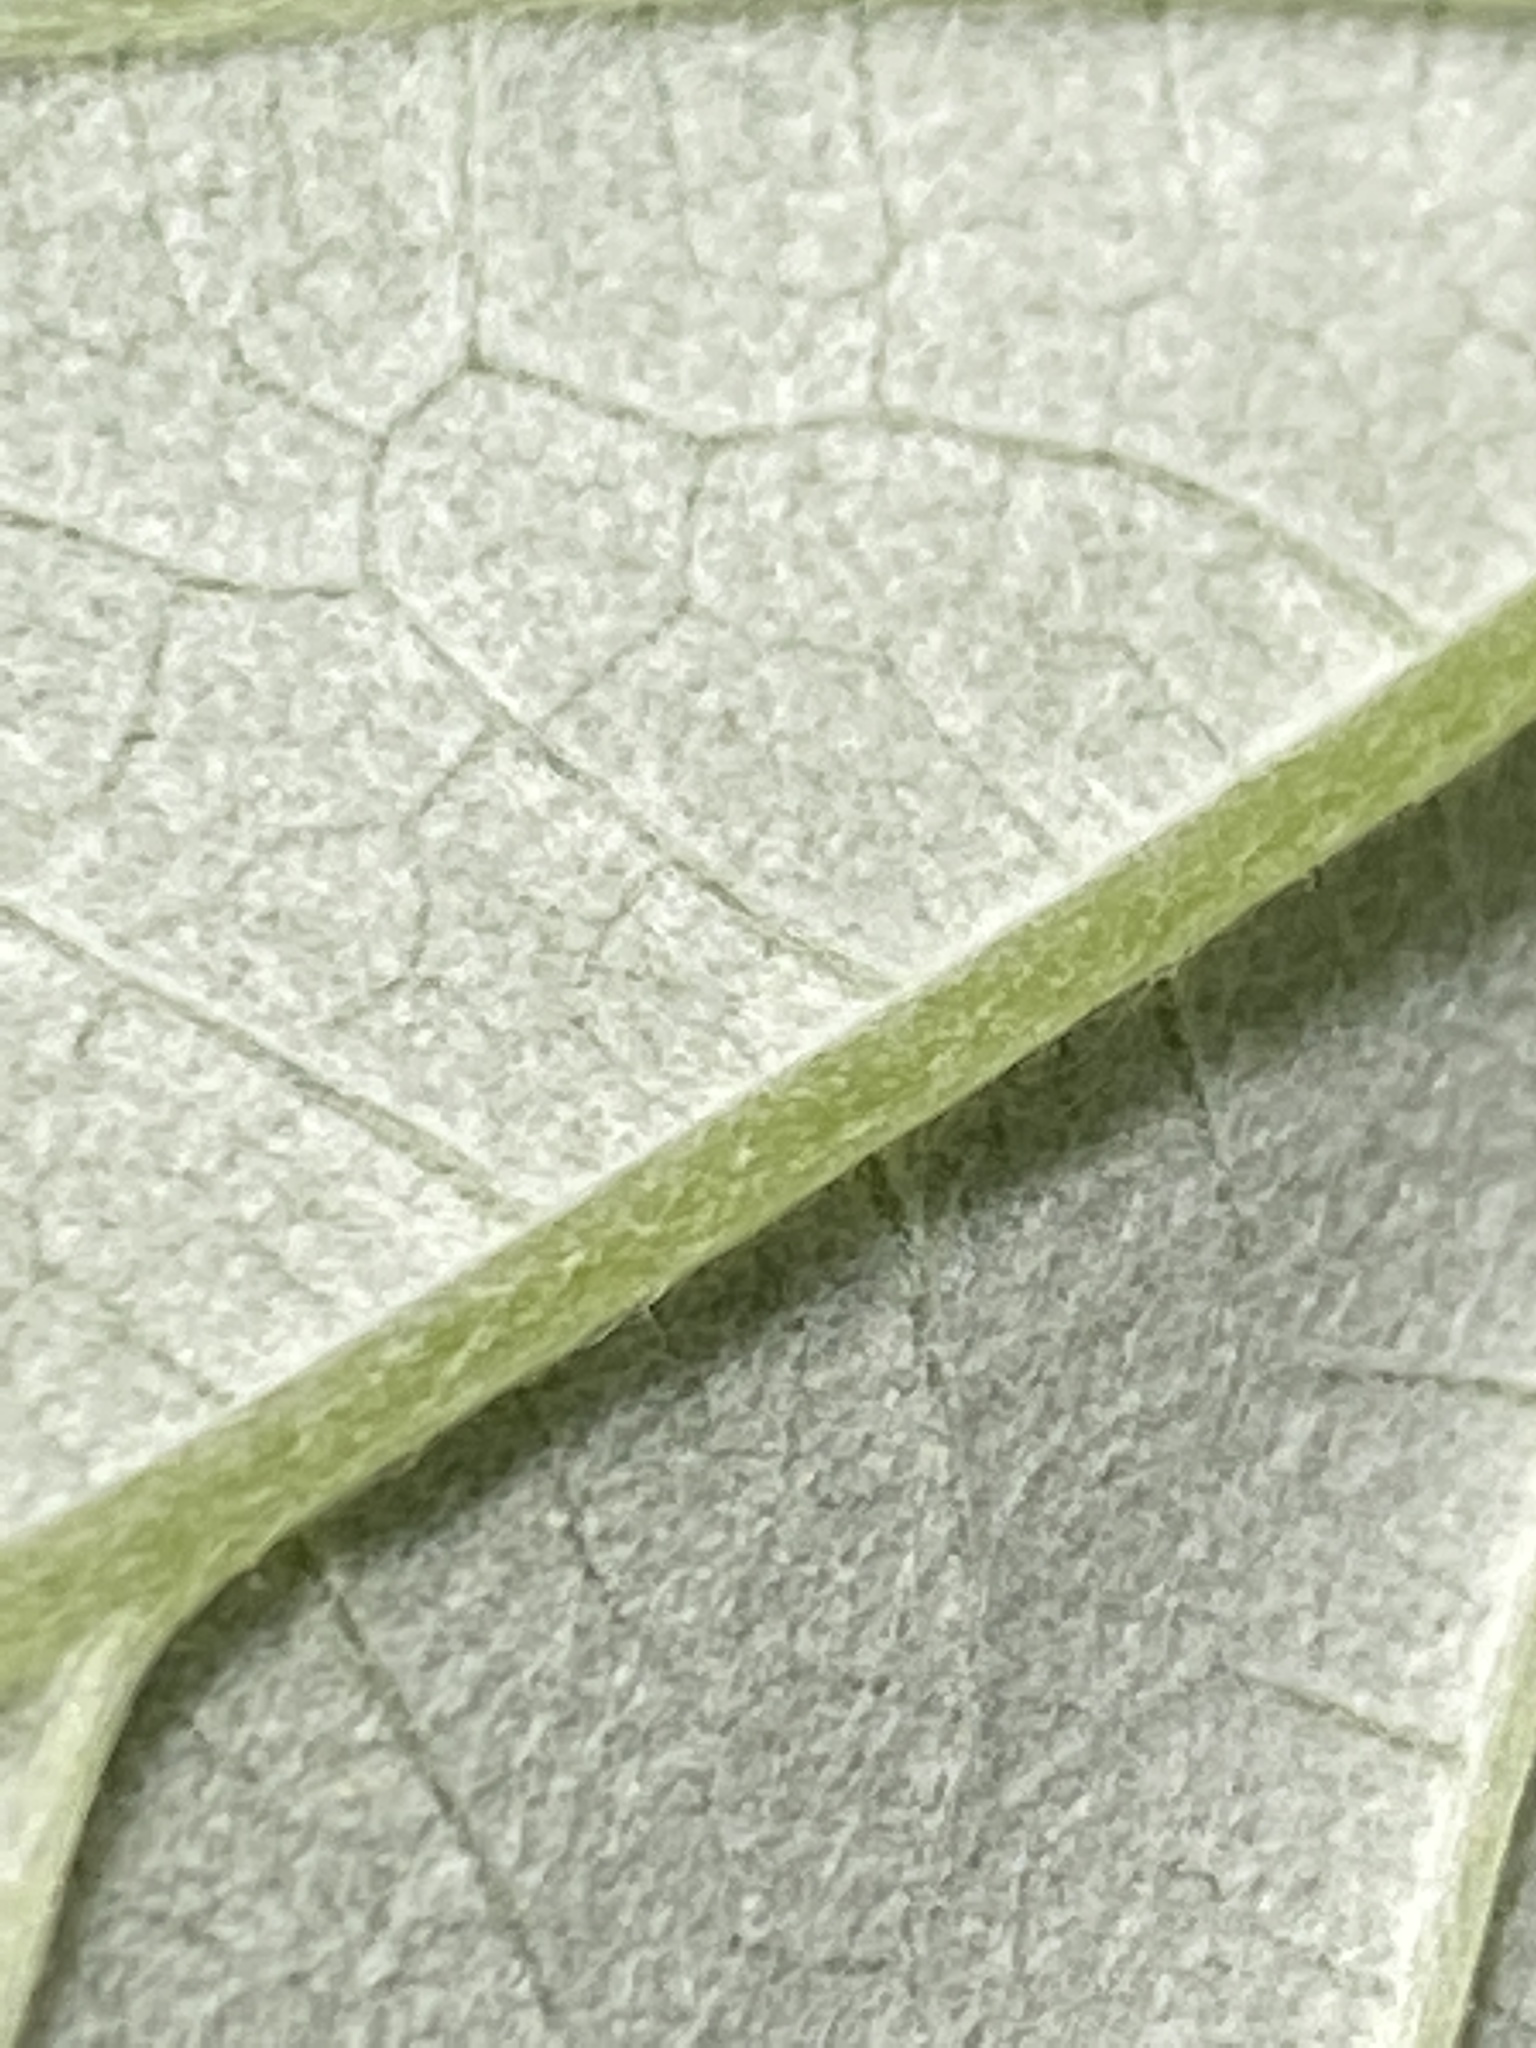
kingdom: Plantae
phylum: Tracheophyta
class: Magnoliopsida
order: Cornales
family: Hydrangeaceae
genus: Hydrangea
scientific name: Hydrangea radiata
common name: Silverleaf hydrangea
